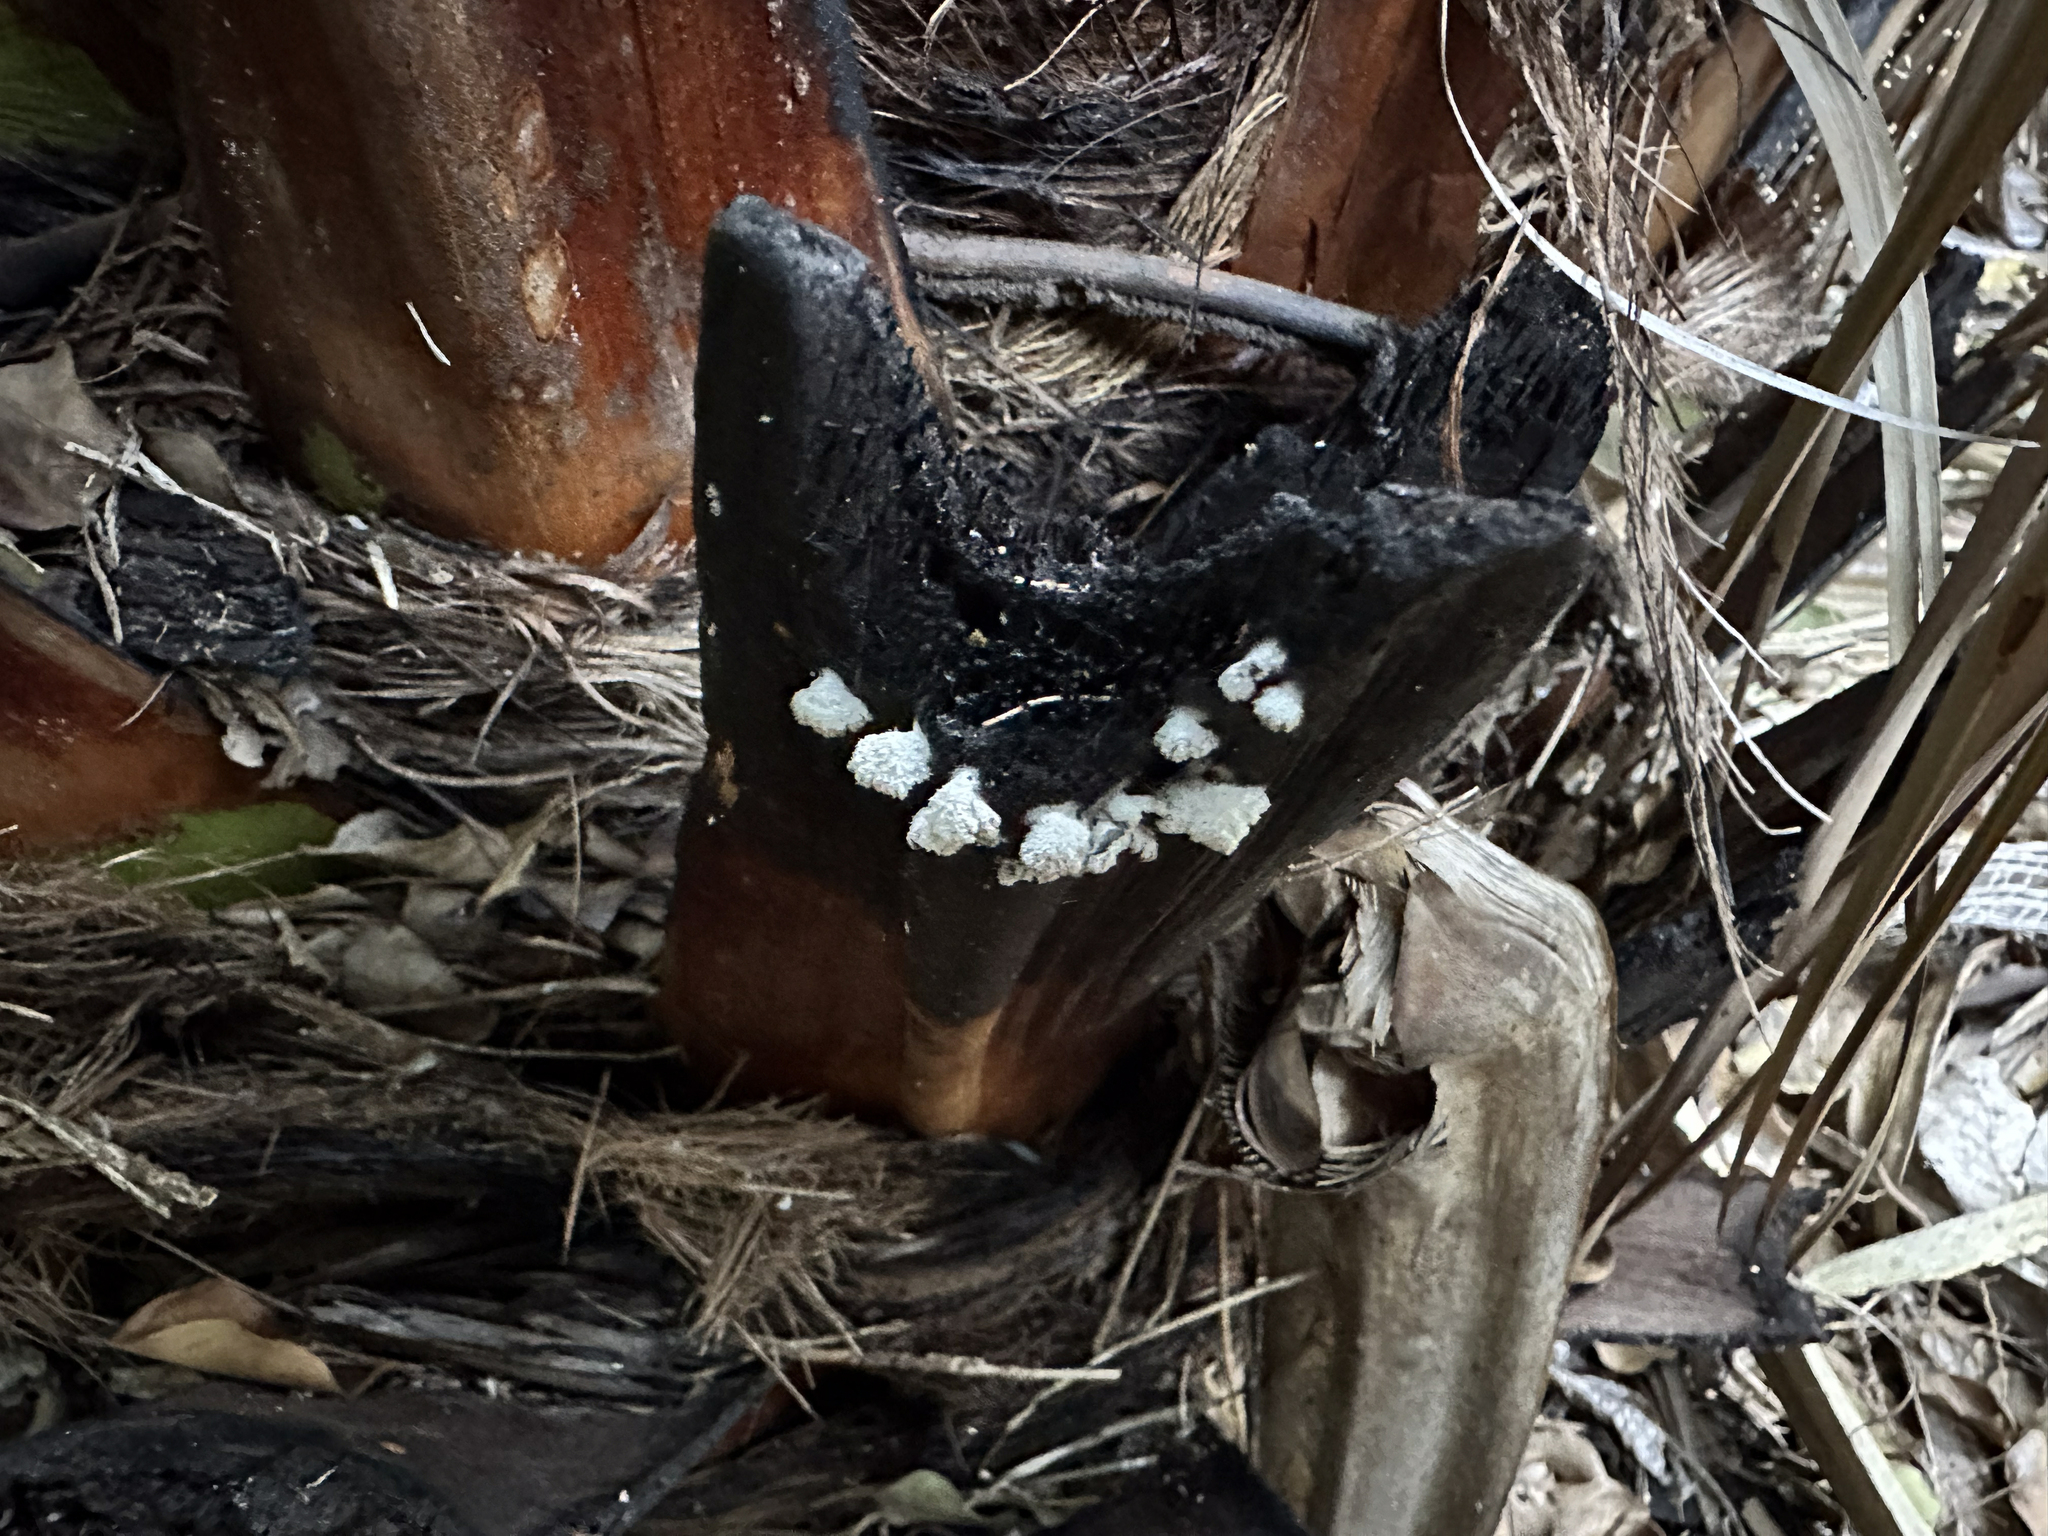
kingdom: Fungi
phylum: Basidiomycota
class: Agaricomycetes
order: Agaricales
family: Schizophyllaceae
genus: Schizophyllum
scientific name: Schizophyllum commune
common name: Common porecrust
